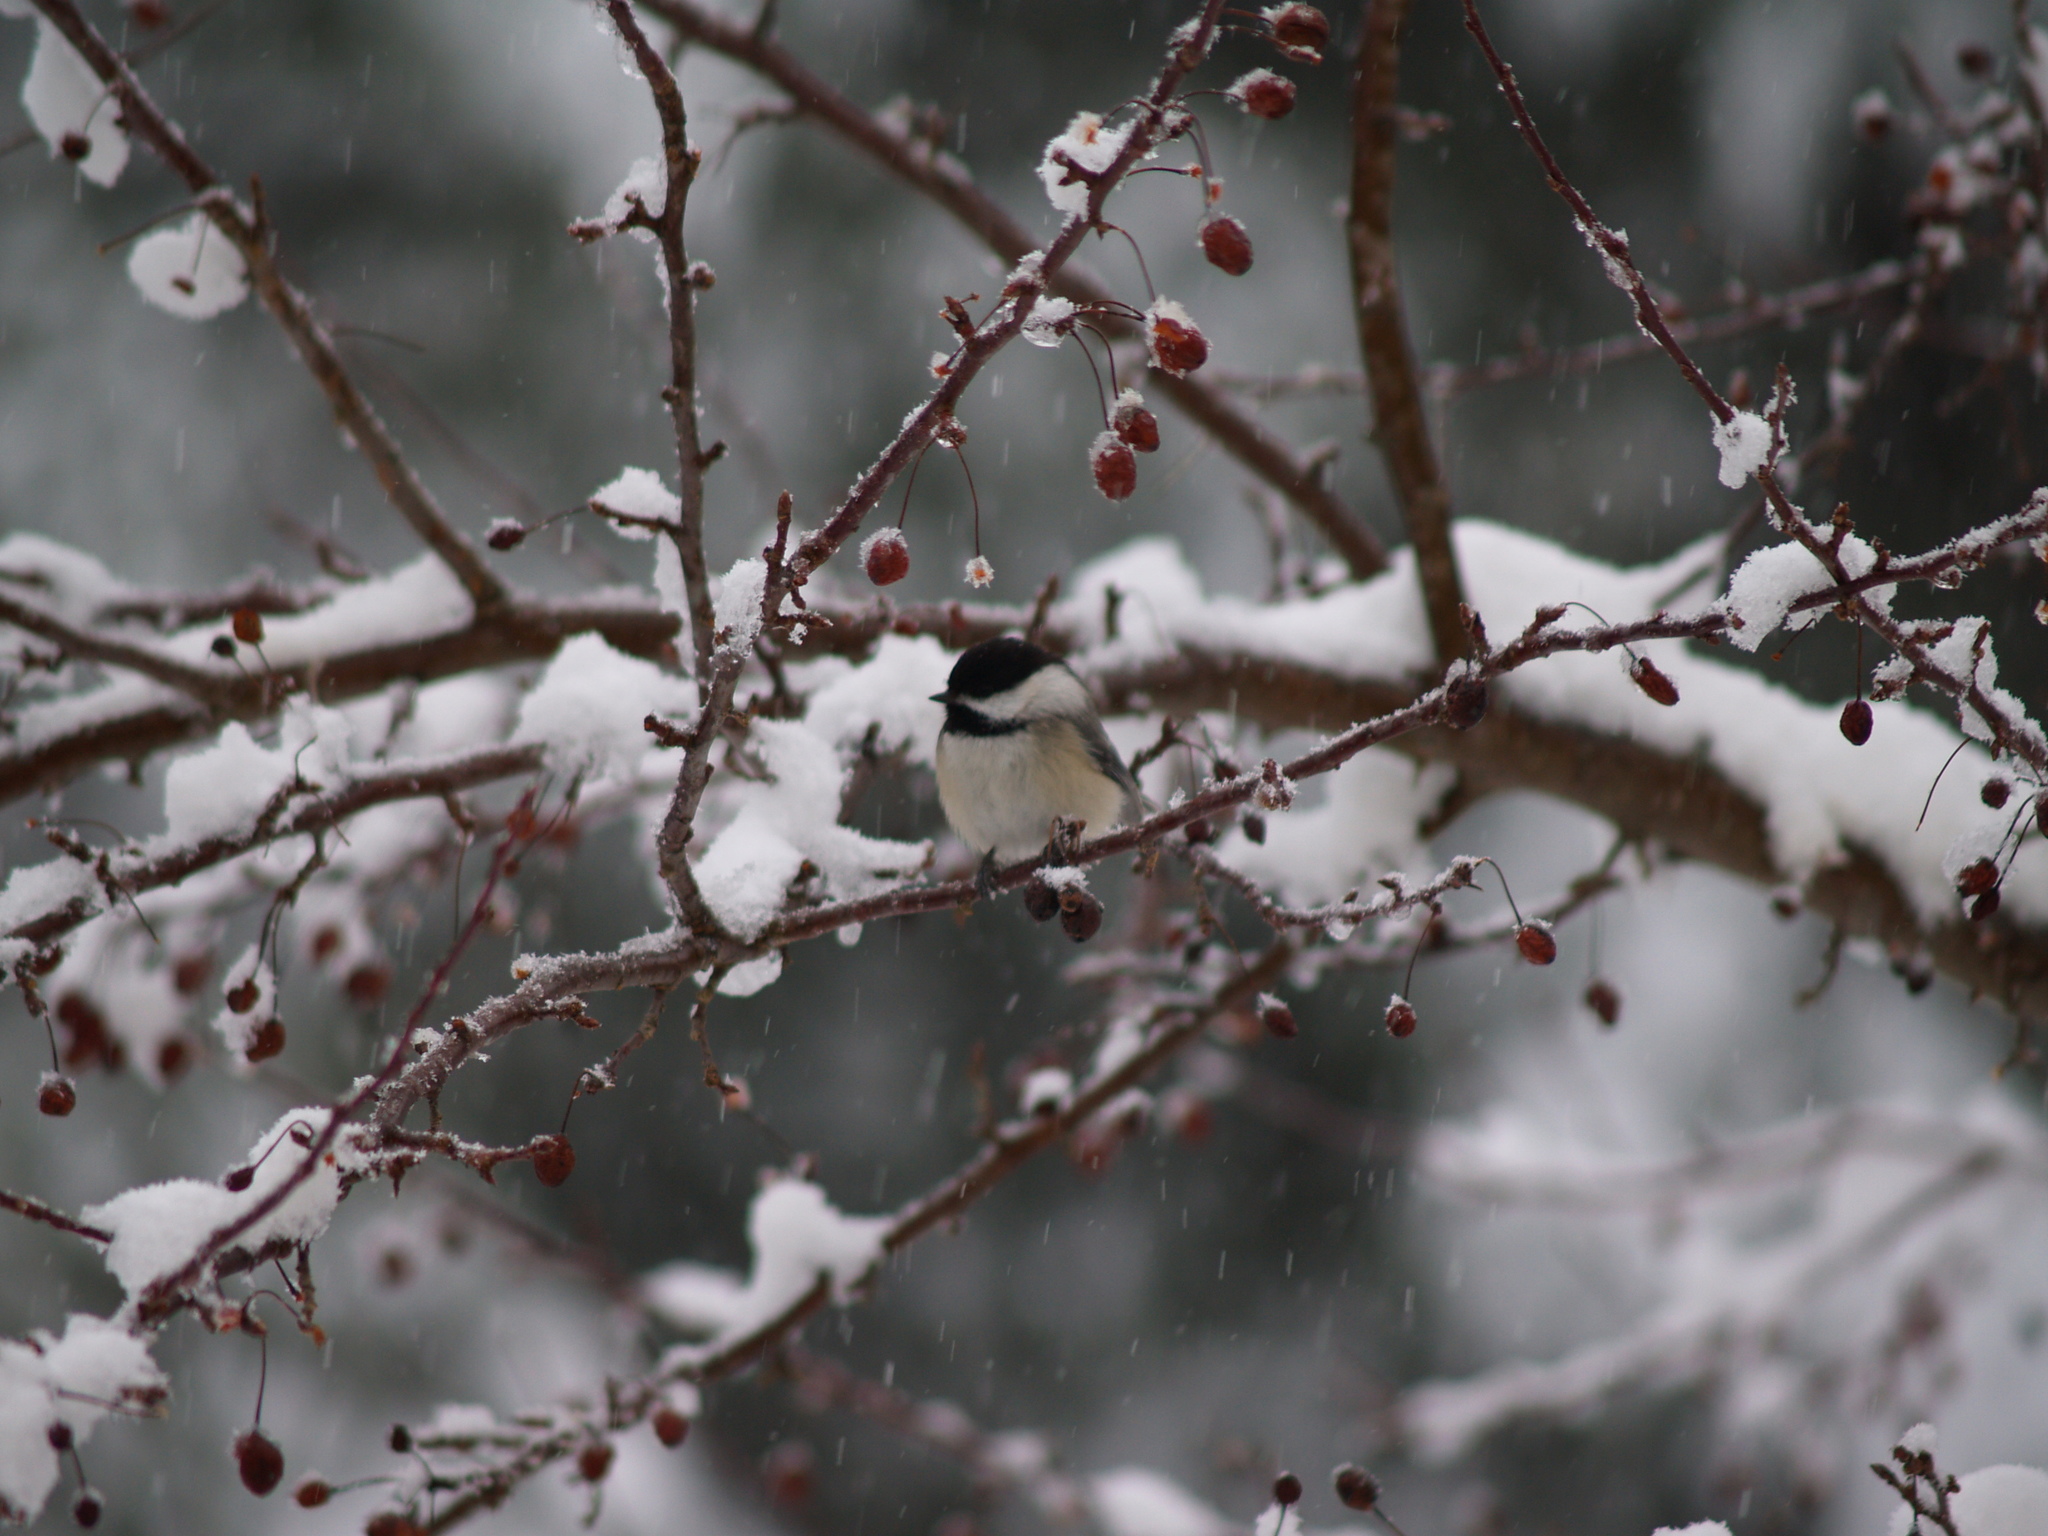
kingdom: Animalia
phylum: Chordata
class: Aves
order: Passeriformes
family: Paridae
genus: Poecile
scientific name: Poecile atricapillus
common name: Black-capped chickadee
